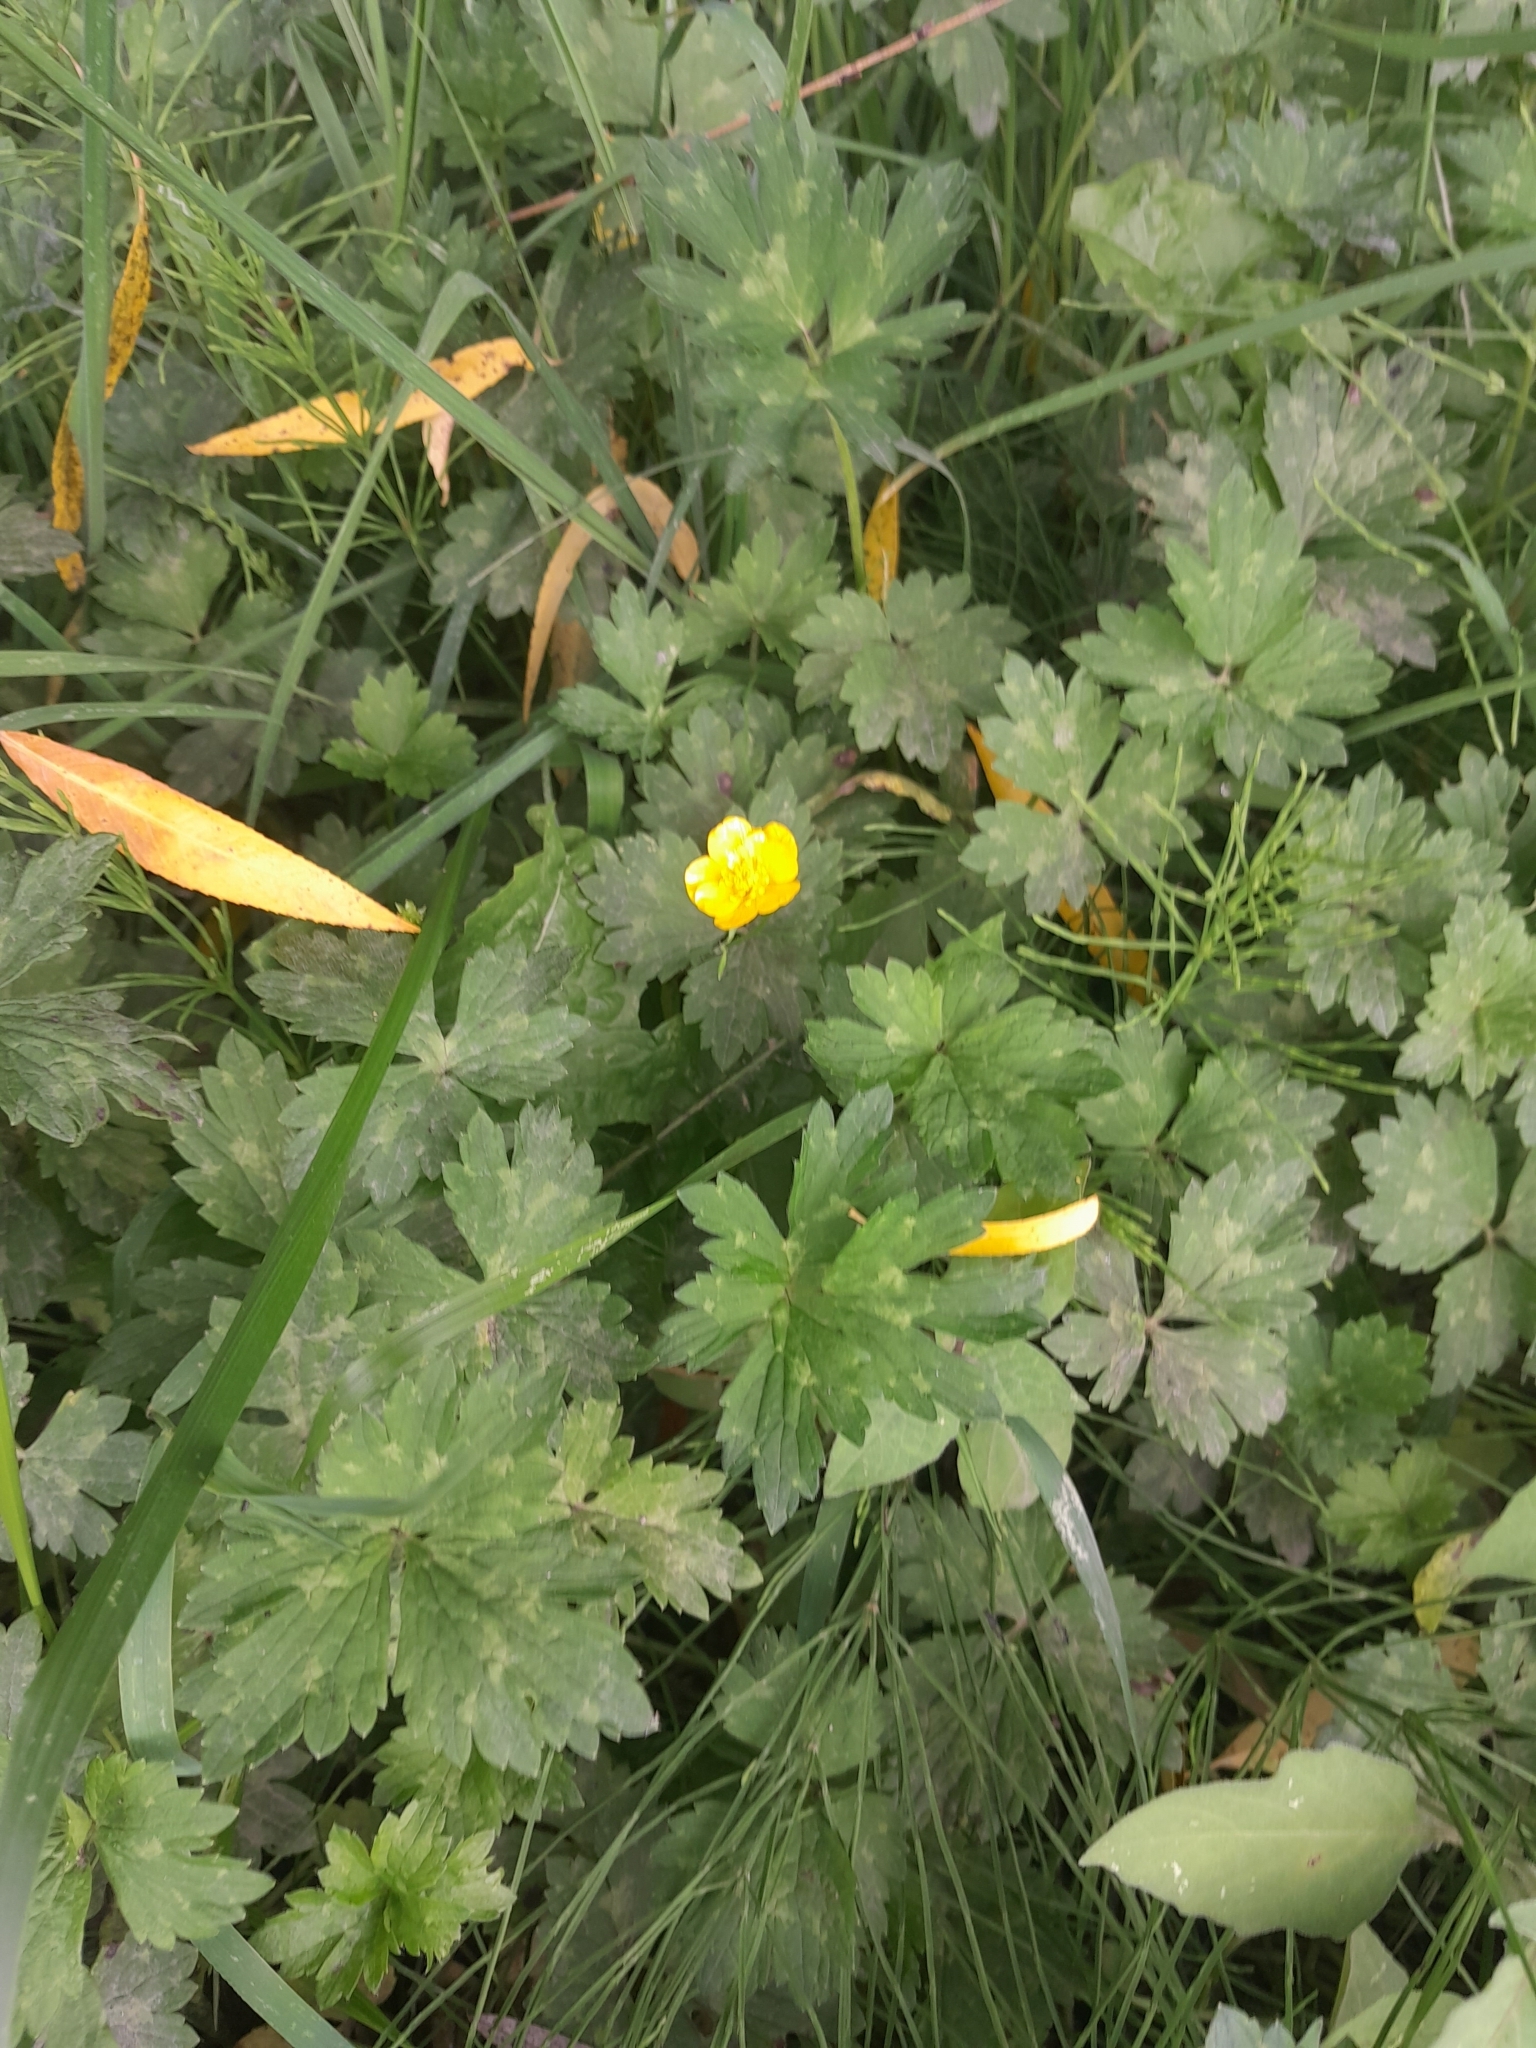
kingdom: Plantae
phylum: Tracheophyta
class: Magnoliopsida
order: Ranunculales
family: Ranunculaceae
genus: Ranunculus
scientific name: Ranunculus repens
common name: Creeping buttercup
